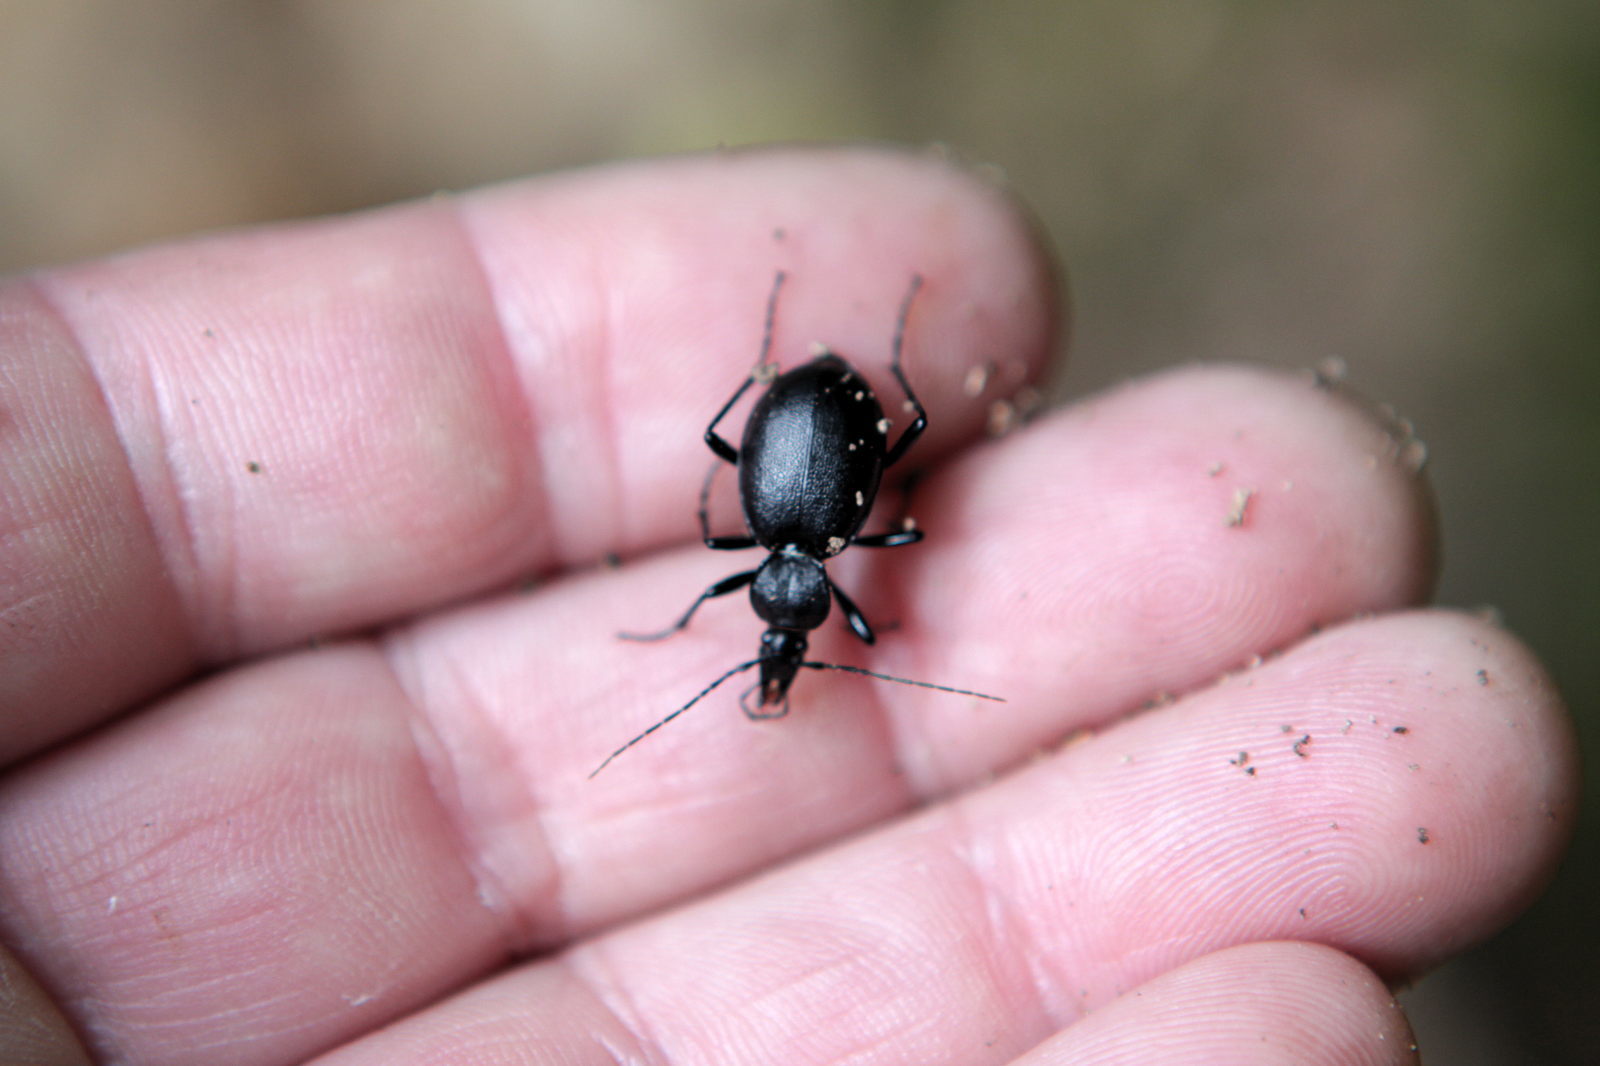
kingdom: Animalia
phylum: Arthropoda
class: Insecta
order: Coleoptera
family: Carabidae
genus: Cychrus
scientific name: Cychrus caraboides
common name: Snail hunter
